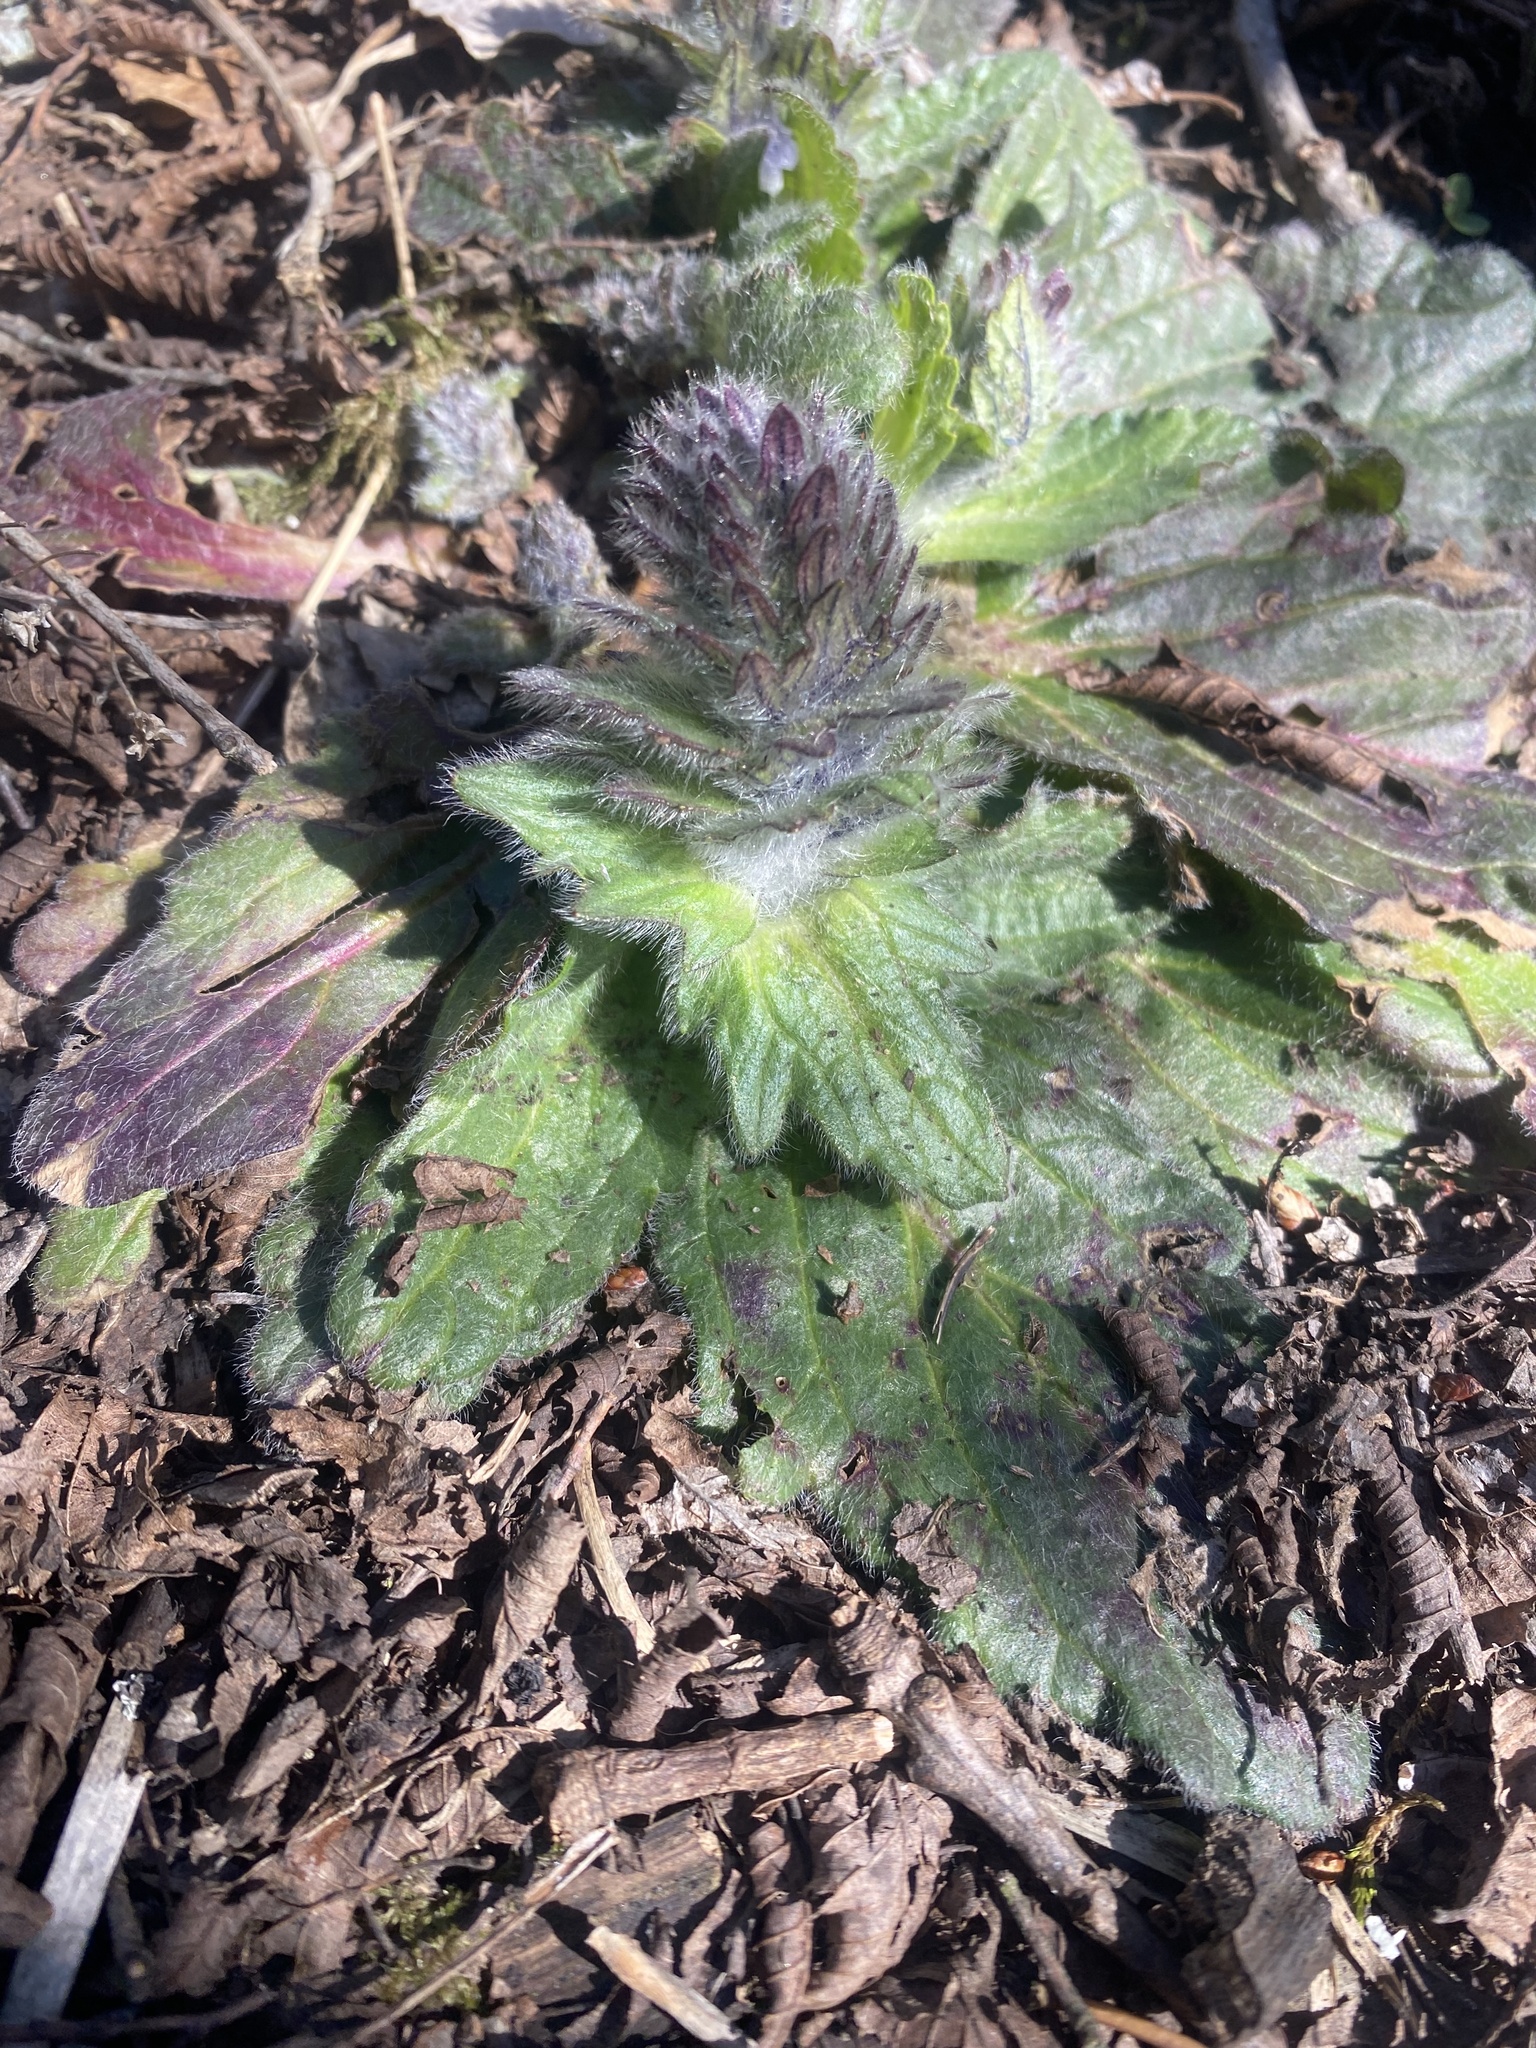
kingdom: Plantae
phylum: Tracheophyta
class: Magnoliopsida
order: Lamiales
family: Lamiaceae
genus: Ajuga
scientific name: Ajuga orientalis
